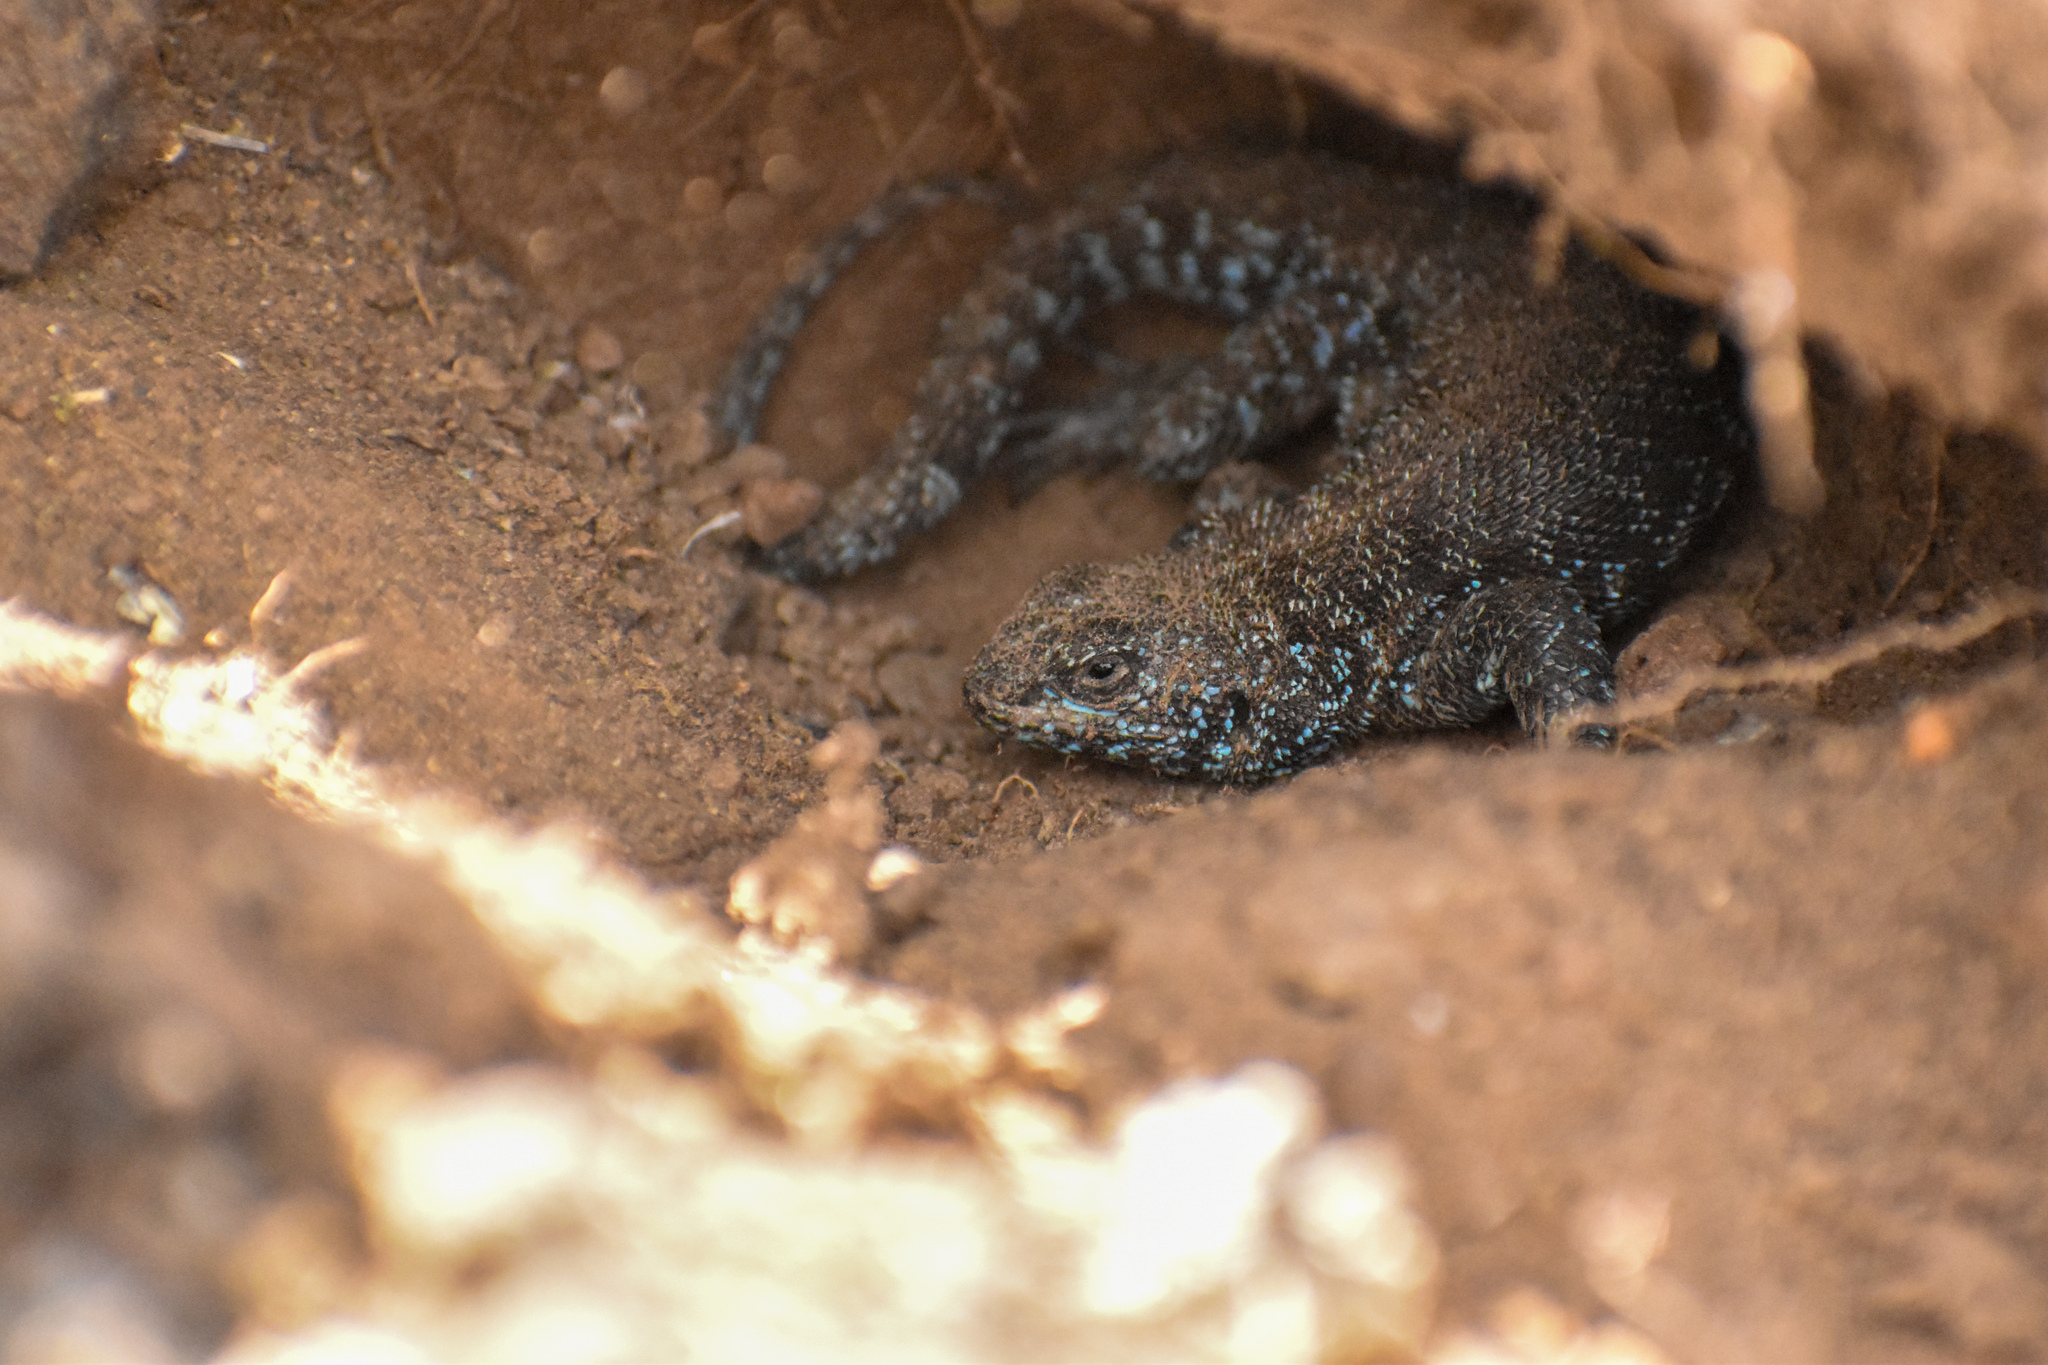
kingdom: Animalia
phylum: Chordata
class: Squamata
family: Liolaemidae
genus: Liolaemus
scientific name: Liolaemus silvanae
